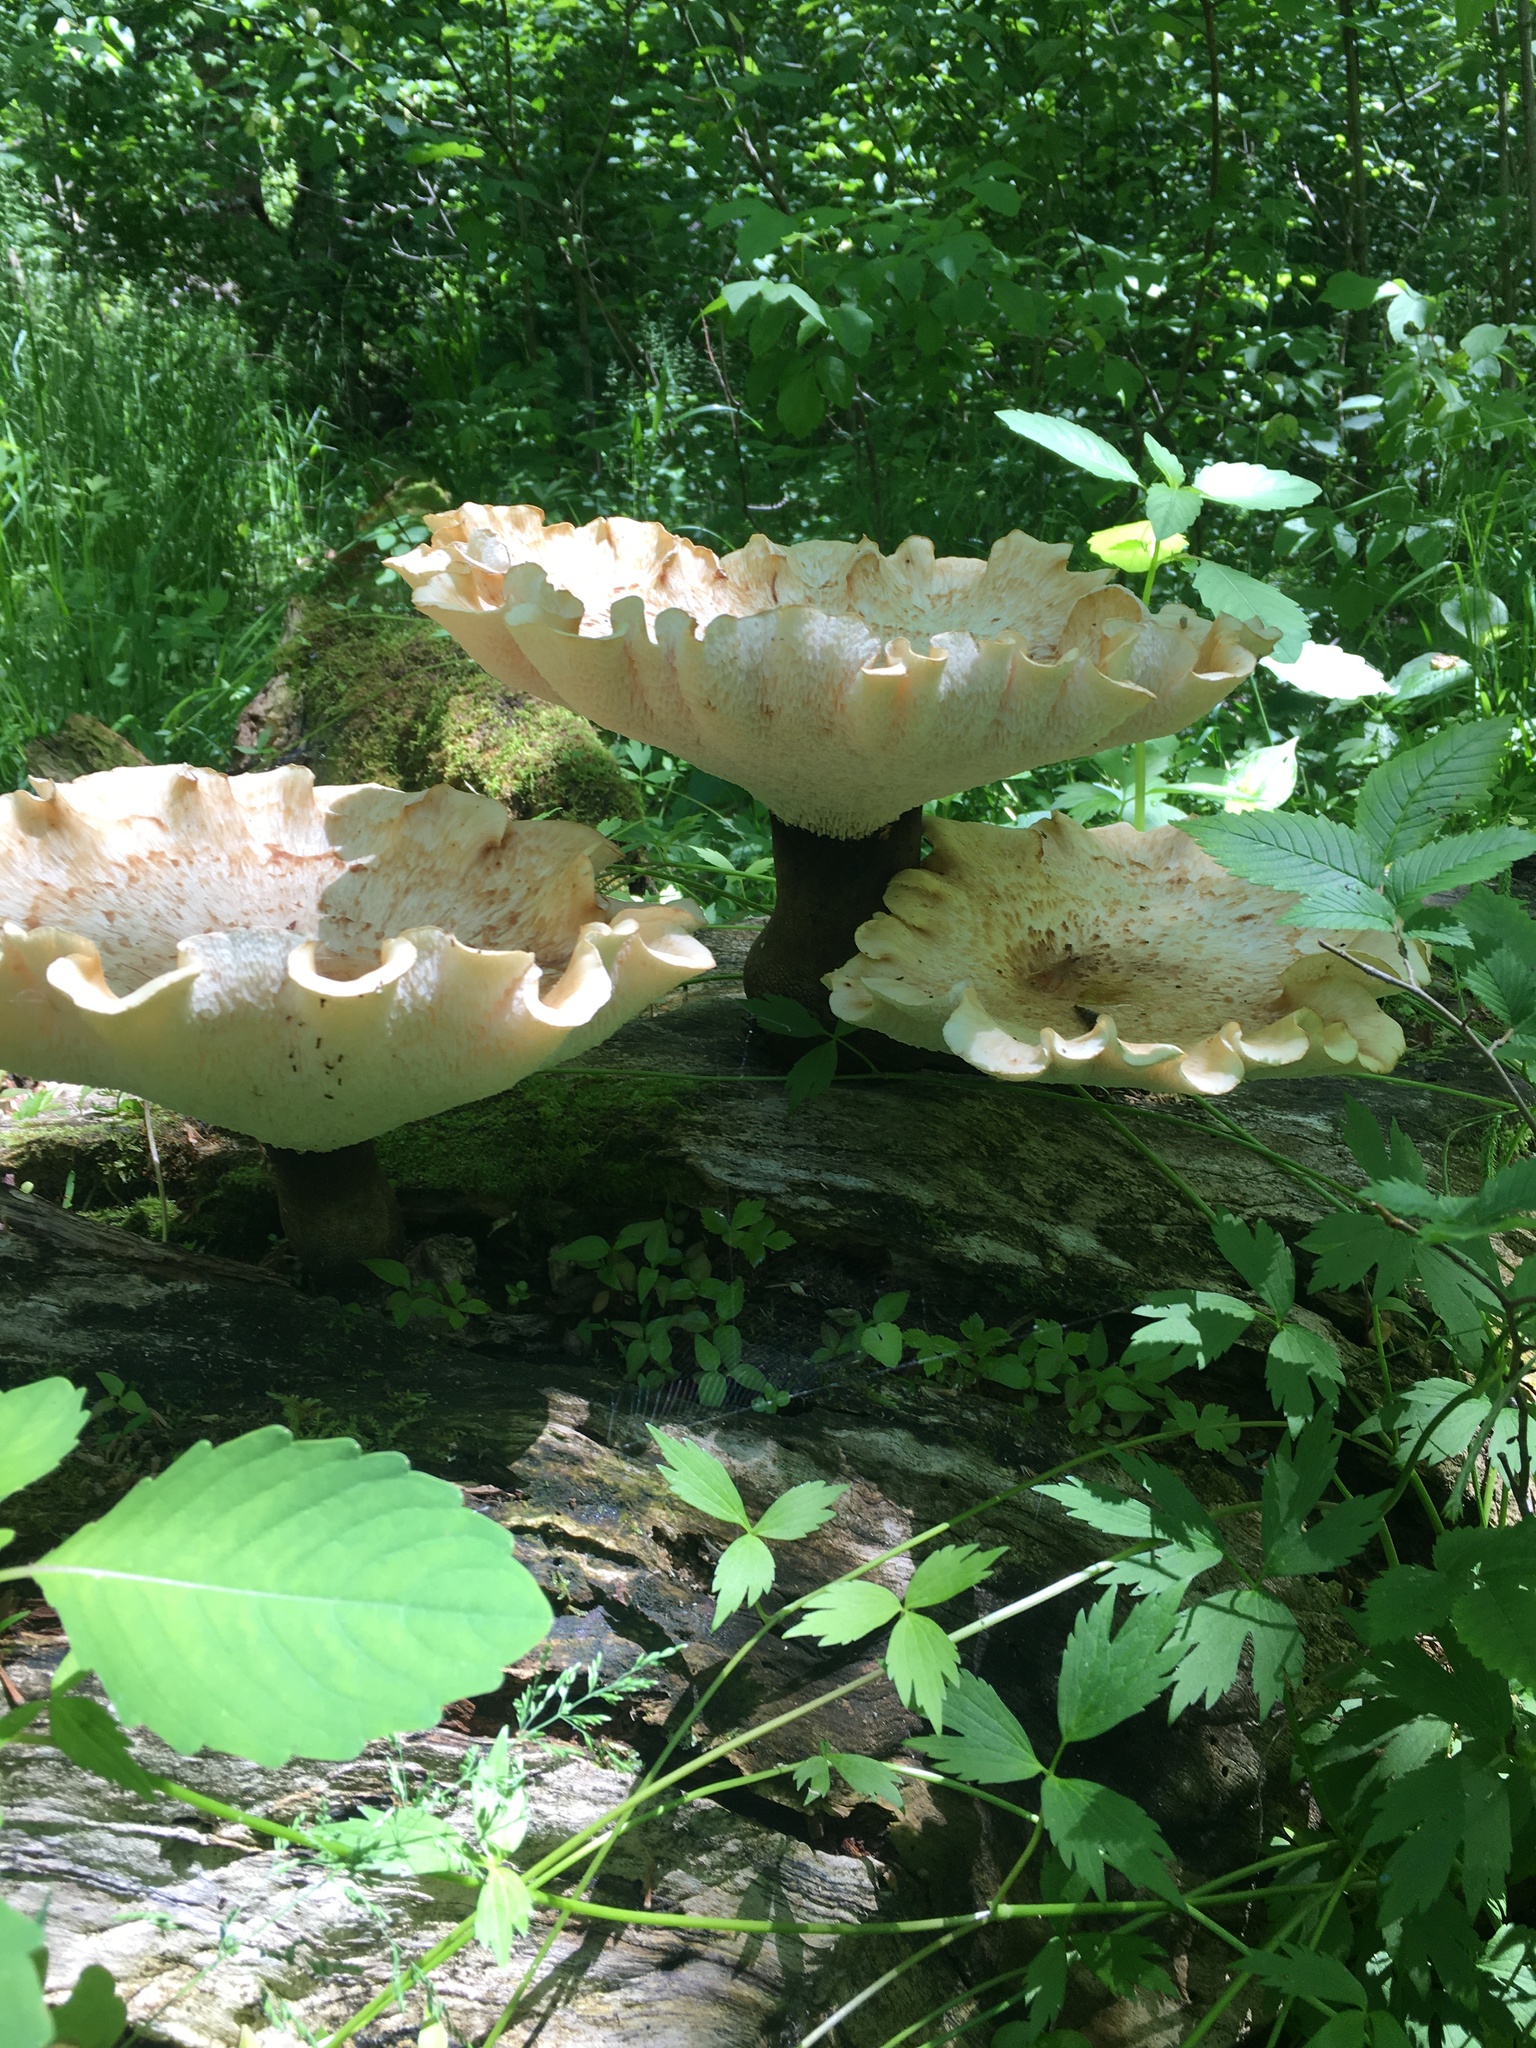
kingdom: Fungi
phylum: Basidiomycota
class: Agaricomycetes
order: Polyporales
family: Polyporaceae
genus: Cerioporus
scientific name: Cerioporus squamosus
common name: Dryad's saddle
